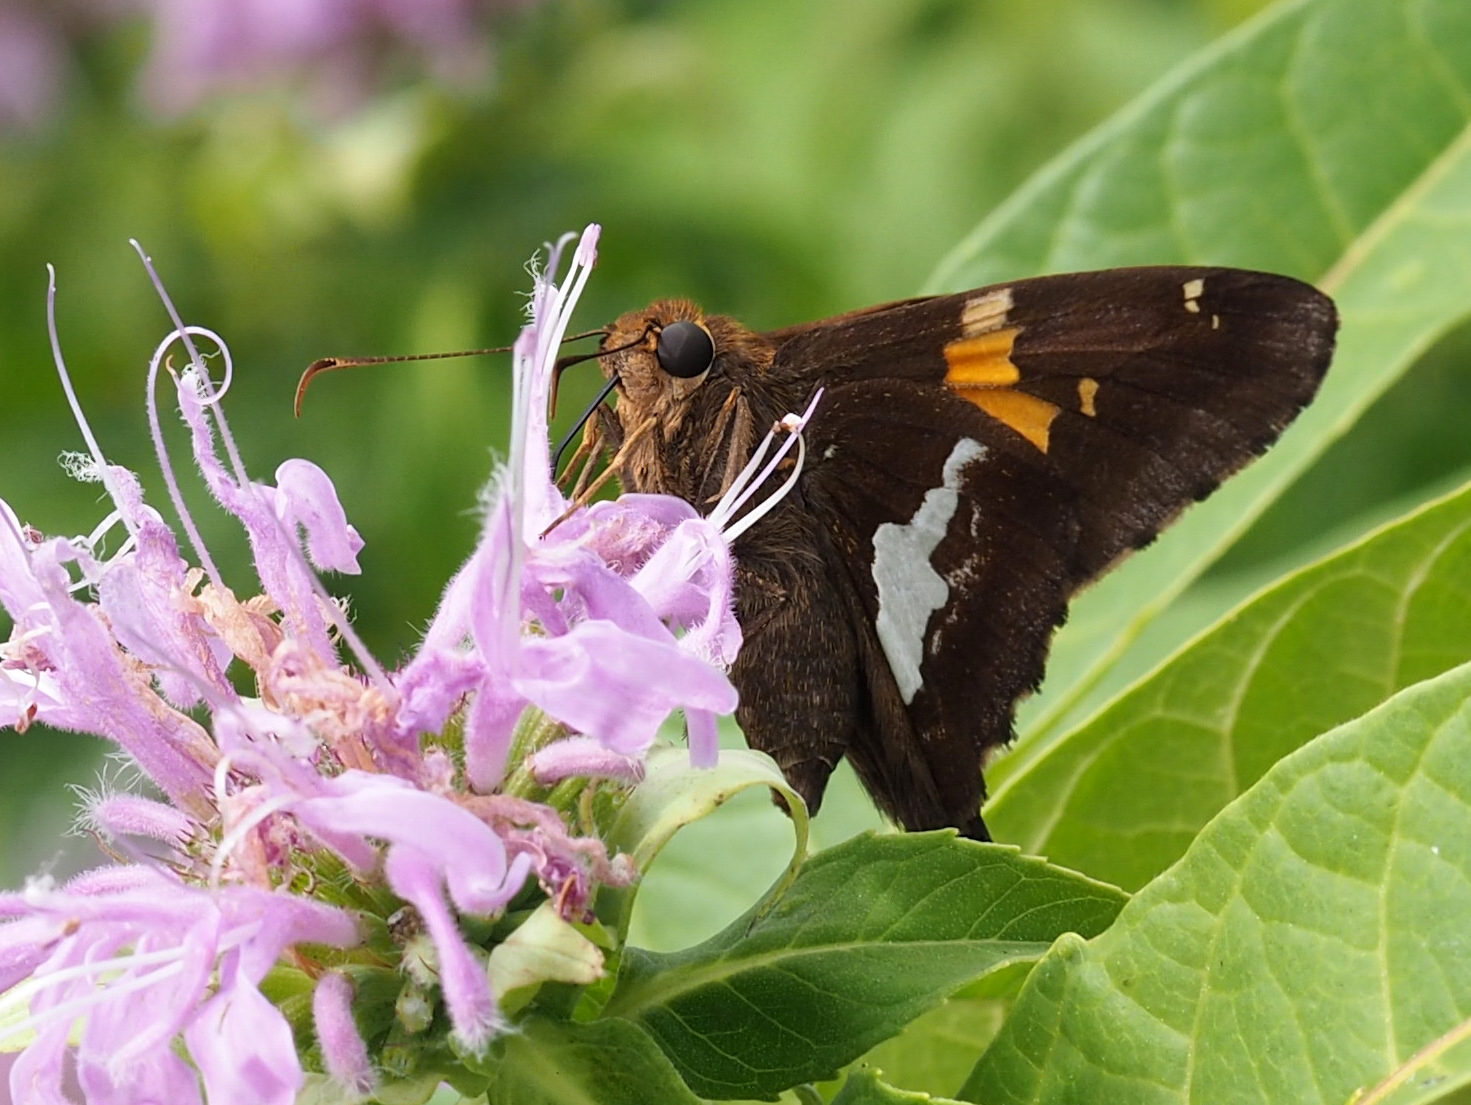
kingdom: Animalia
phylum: Arthropoda
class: Insecta
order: Lepidoptera
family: Hesperiidae
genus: Epargyreus
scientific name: Epargyreus clarus
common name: Silver-spotted skipper
